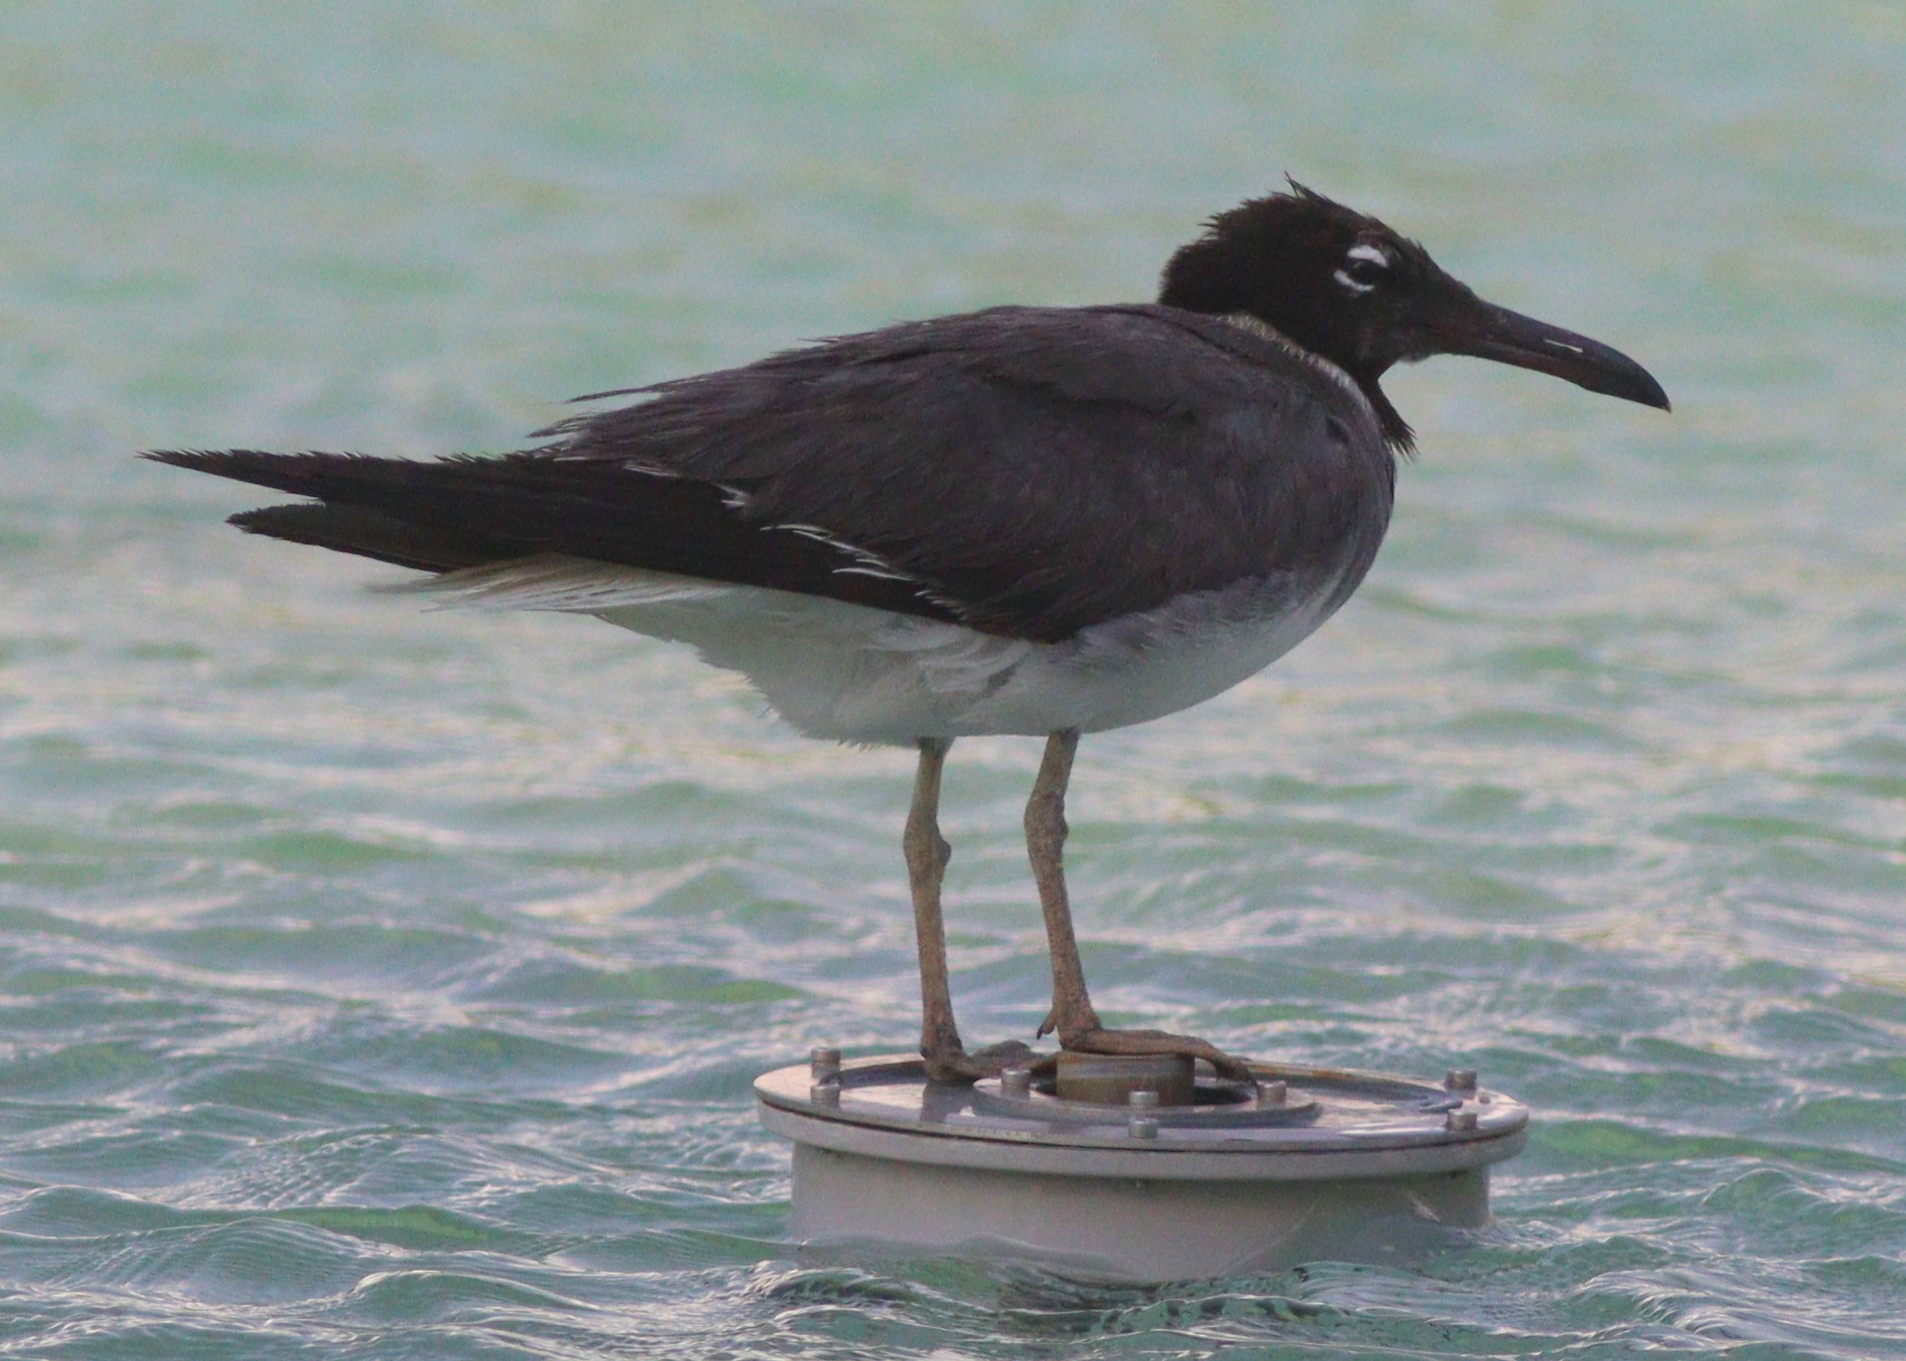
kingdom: Animalia
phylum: Chordata
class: Aves
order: Charadriiformes
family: Laridae
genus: Ichthyaetus
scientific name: Ichthyaetus leucophthalmus
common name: White-eyed gull
